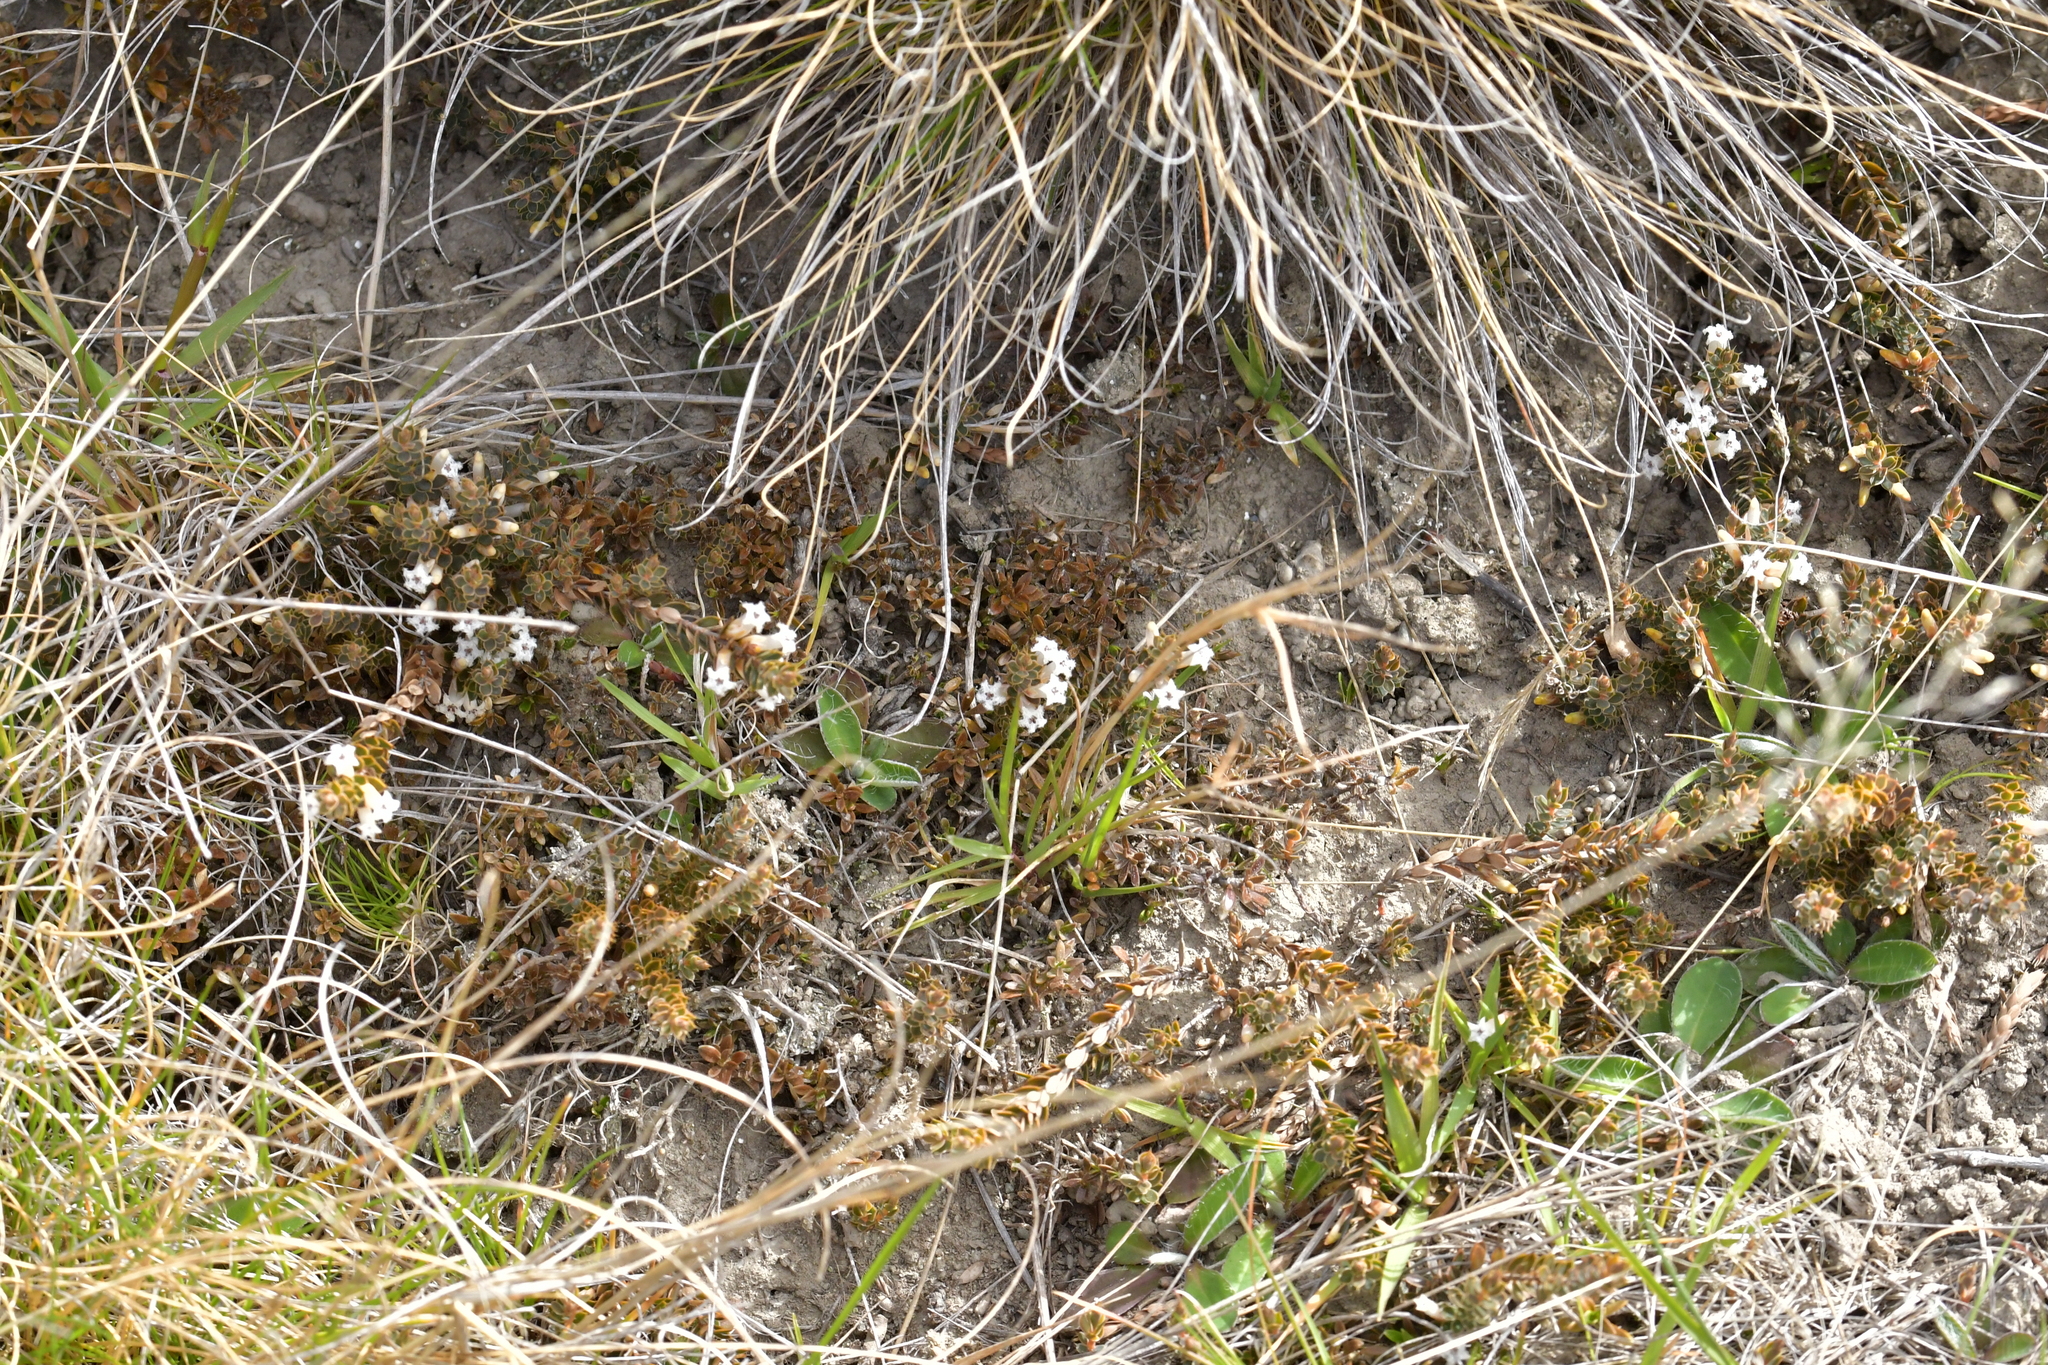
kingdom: Plantae
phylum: Tracheophyta
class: Magnoliopsida
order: Ericales
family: Ericaceae
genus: Styphelia
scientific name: Styphelia nesophila
